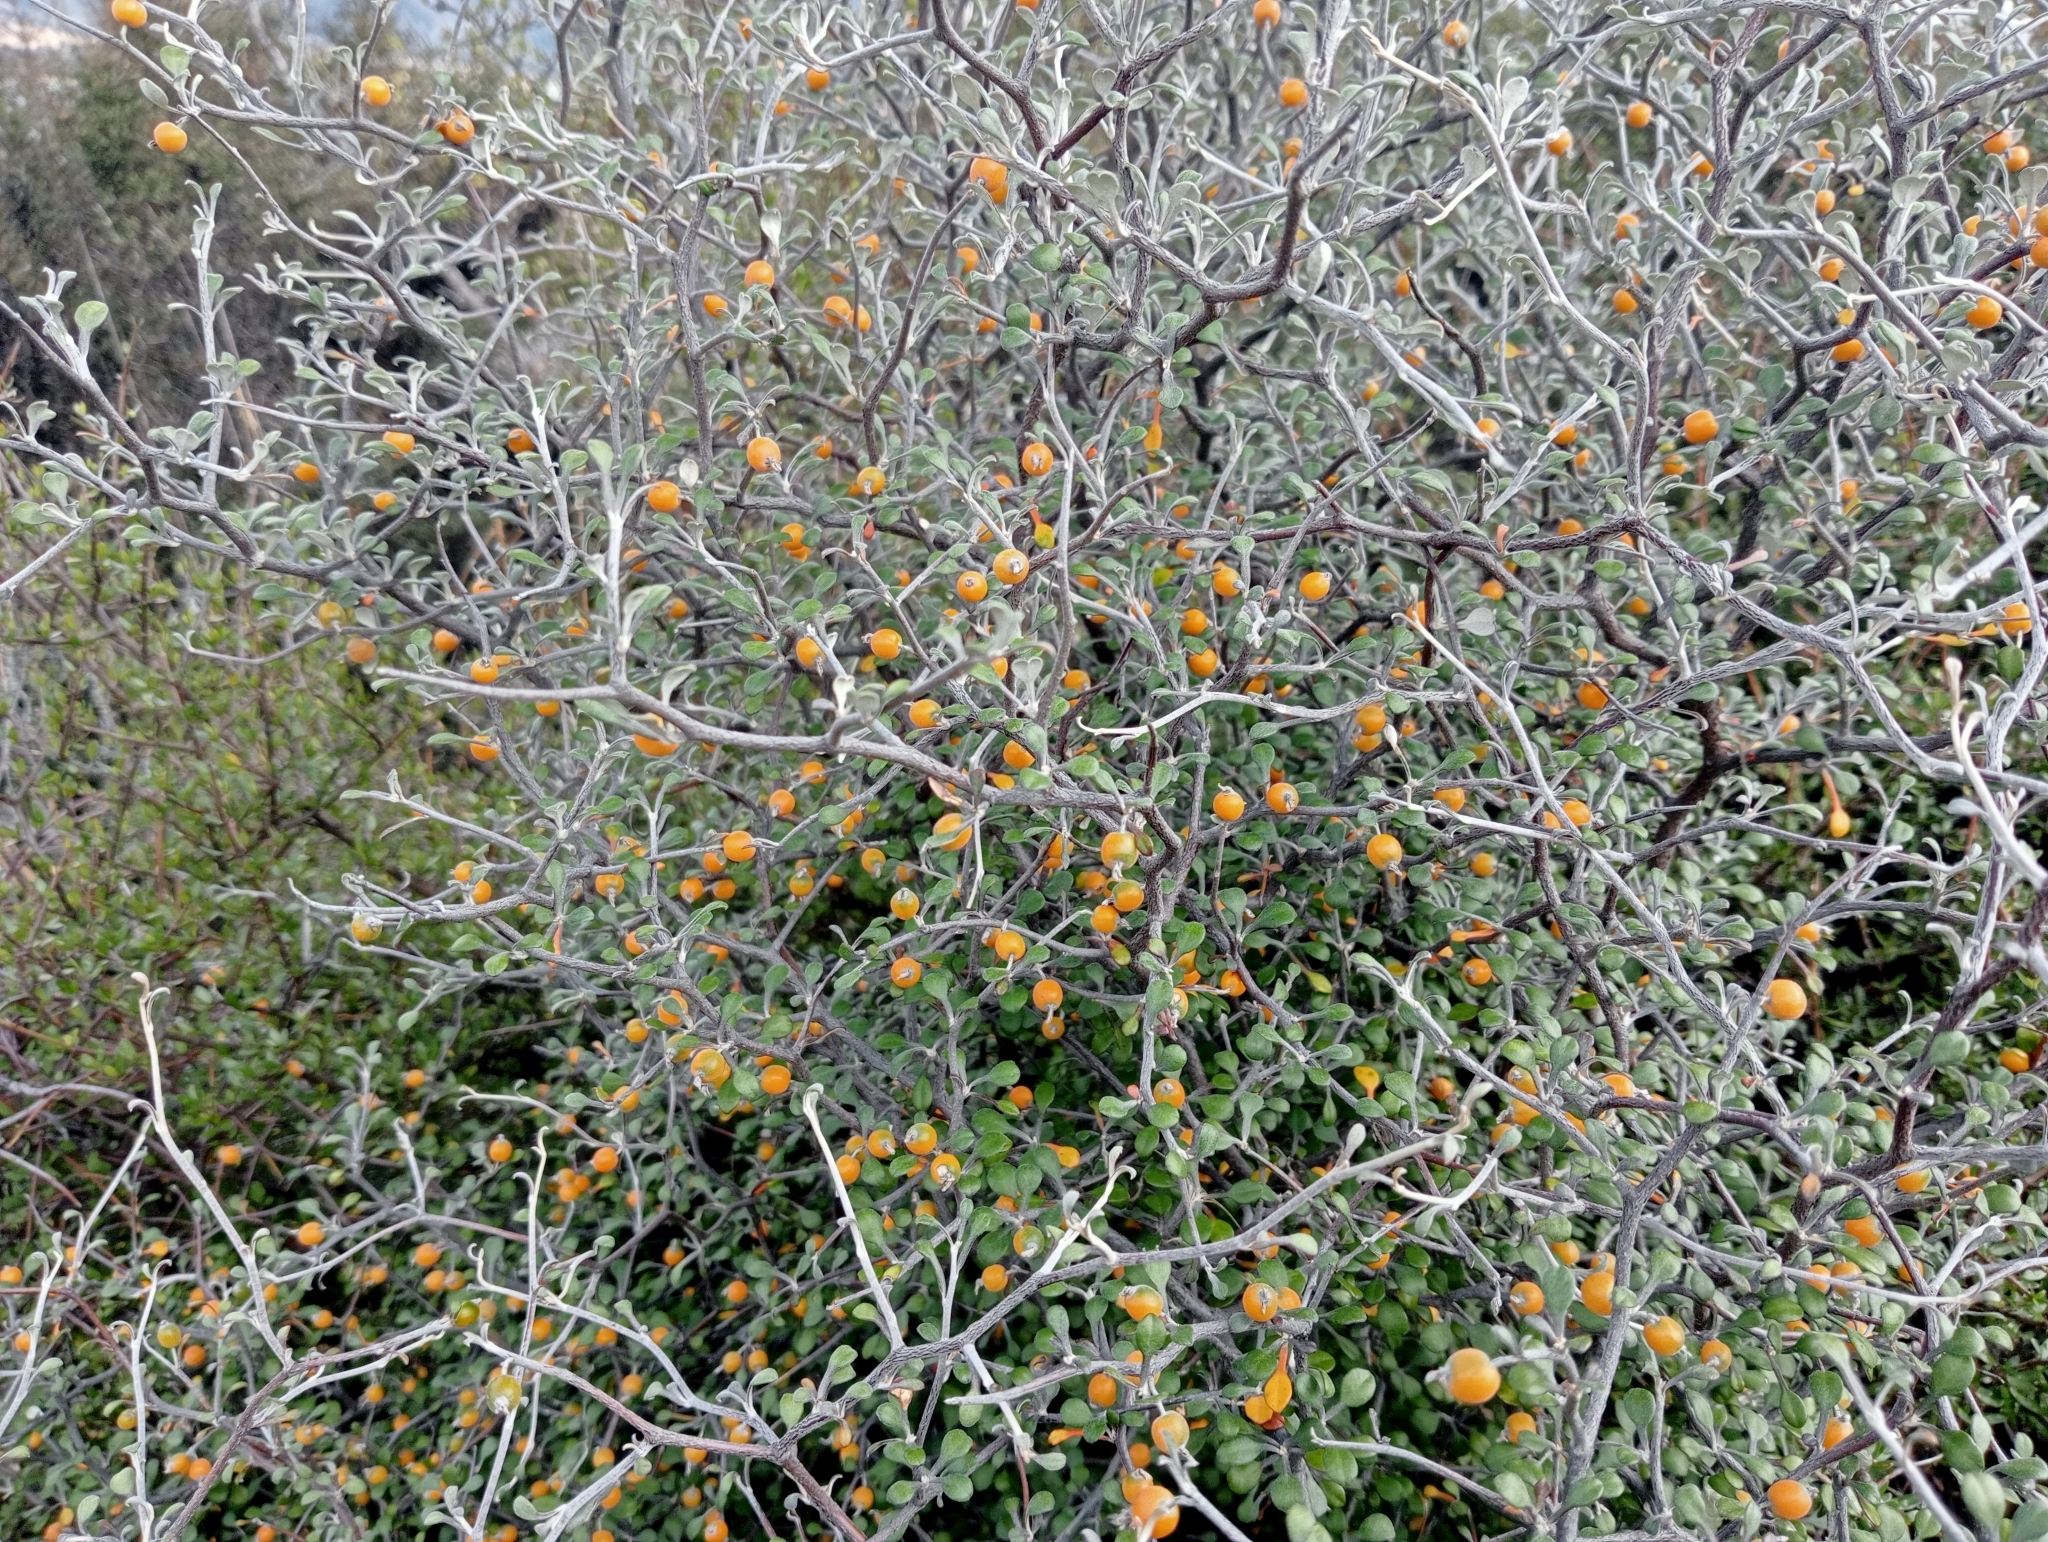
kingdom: Plantae
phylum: Tracheophyta
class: Magnoliopsida
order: Asterales
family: Argophyllaceae
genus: Corokia
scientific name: Corokia cotoneaster
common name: Wire nettingbush
